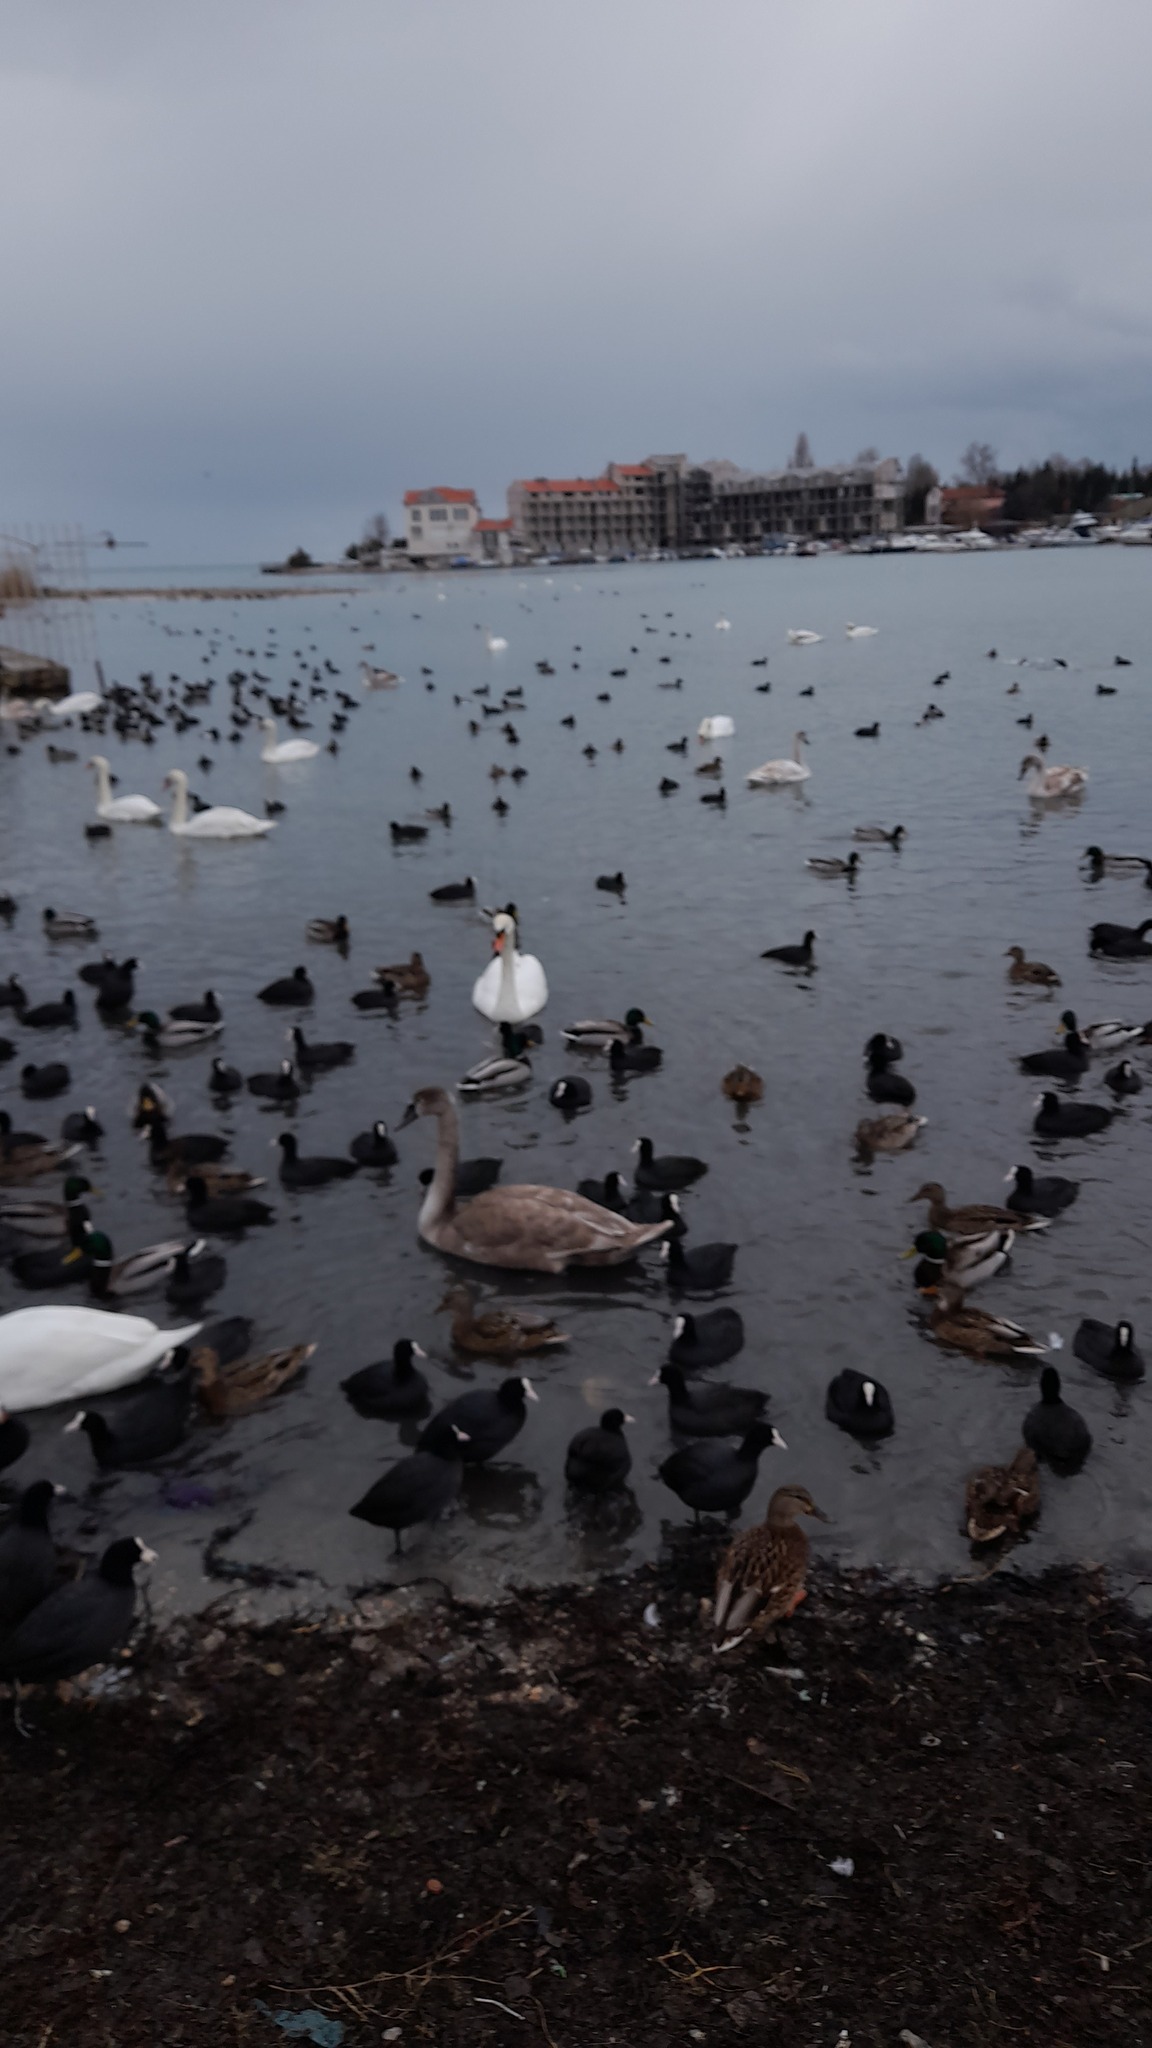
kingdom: Animalia
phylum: Chordata
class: Aves
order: Gruiformes
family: Rallidae
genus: Fulica
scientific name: Fulica atra
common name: Eurasian coot
